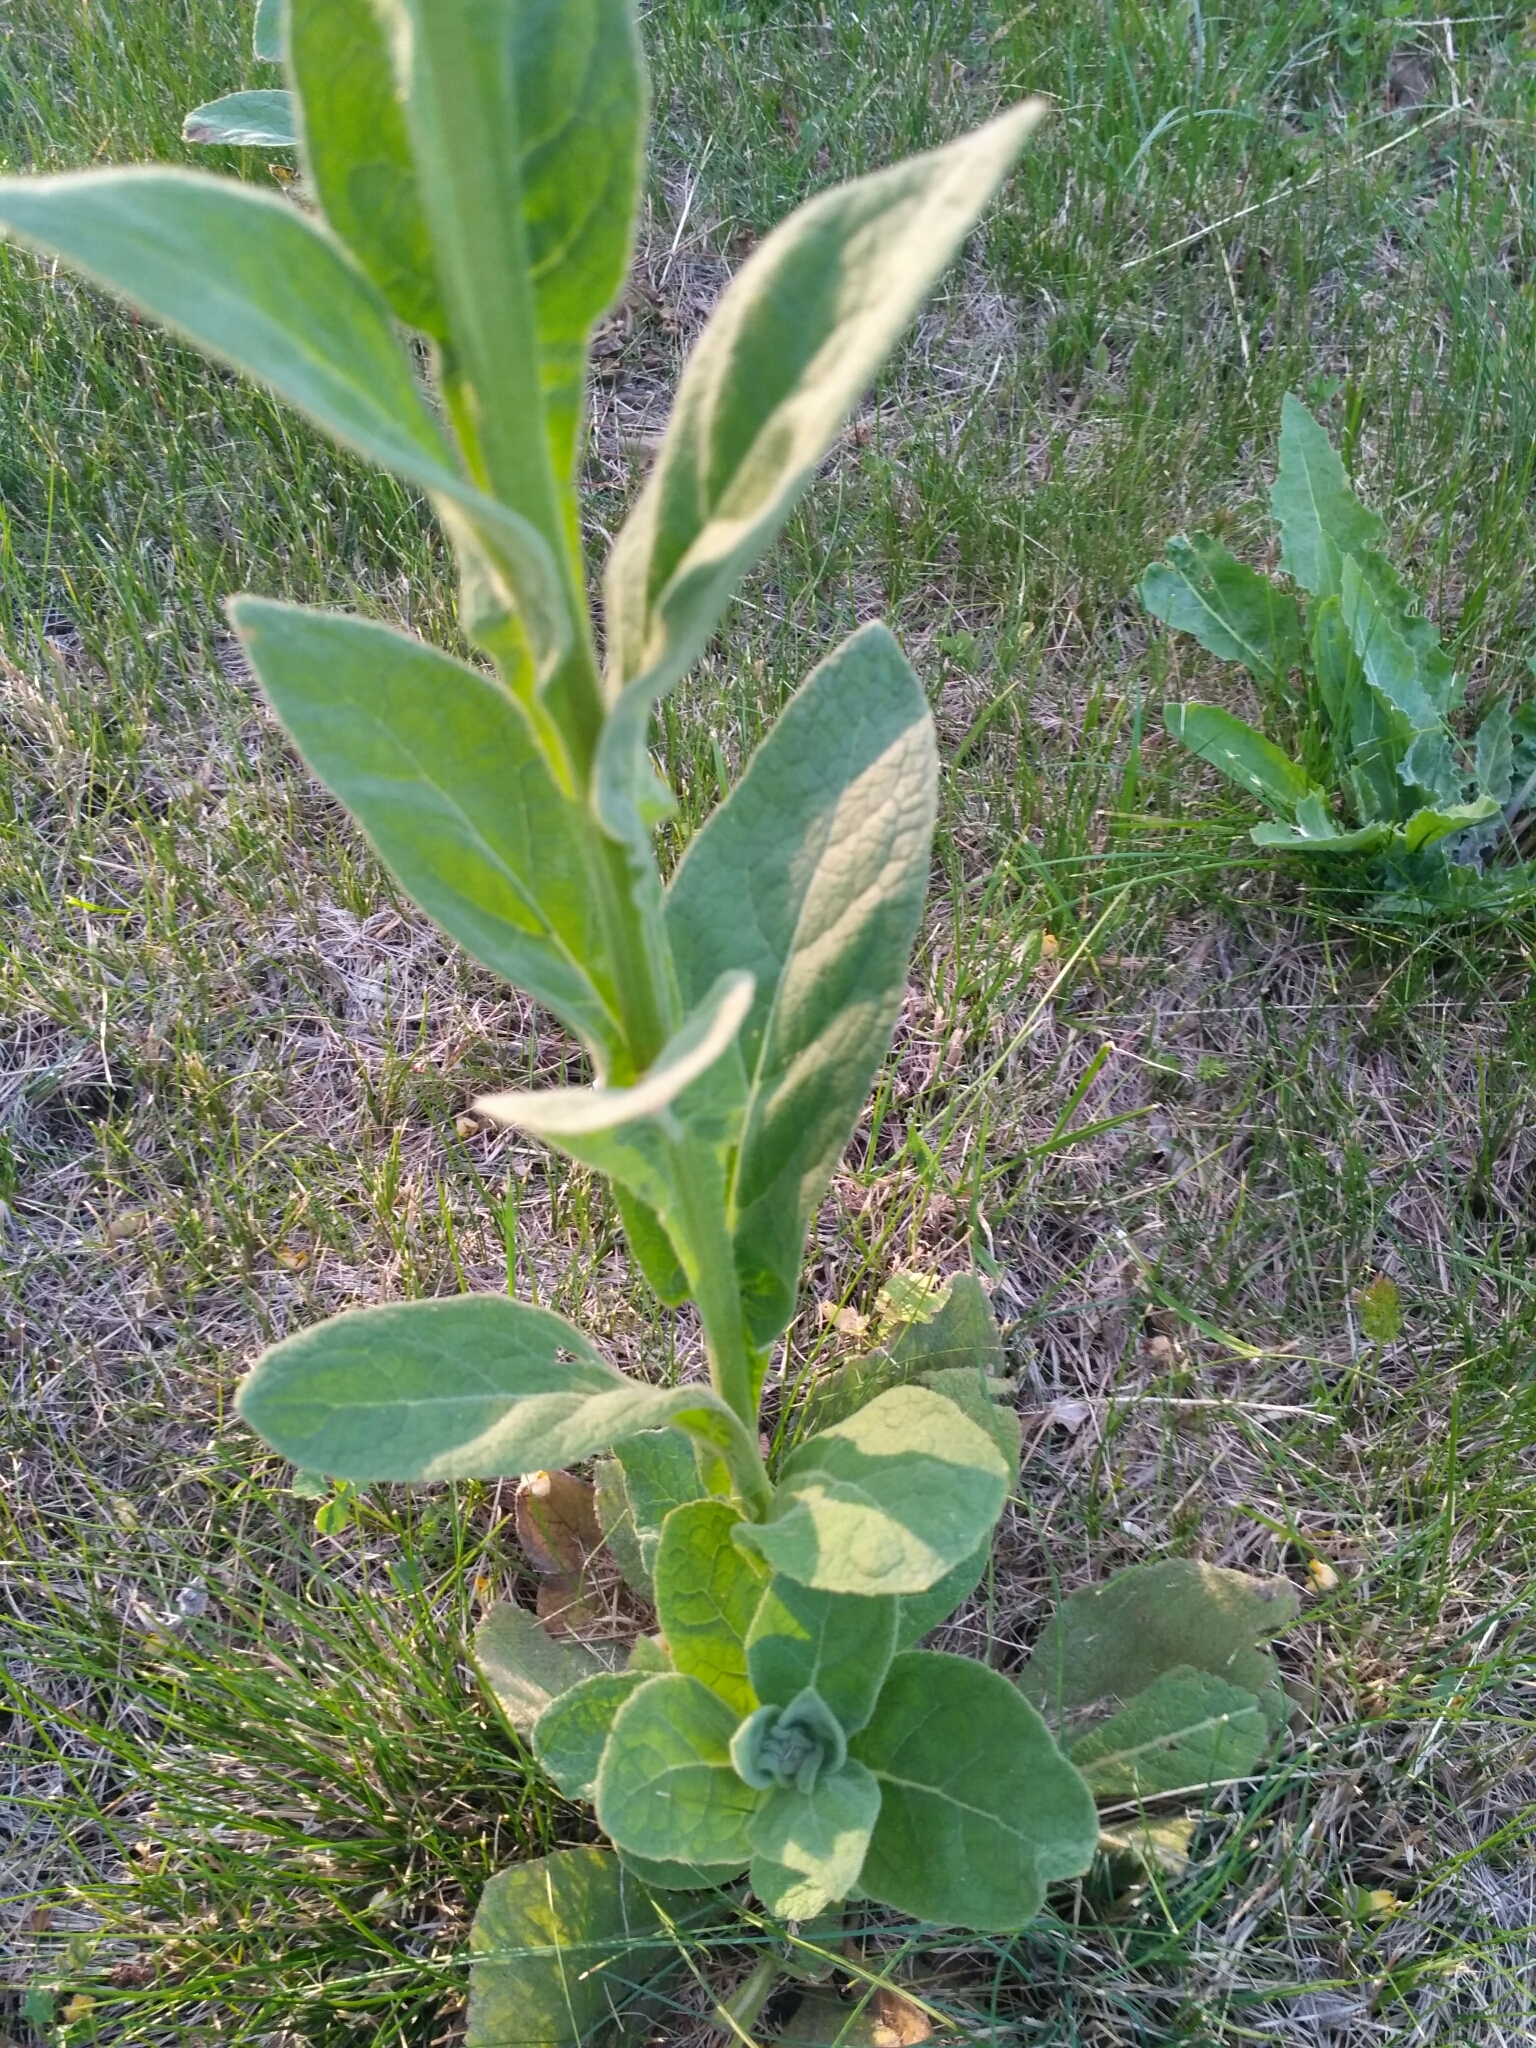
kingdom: Plantae
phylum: Tracheophyta
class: Magnoliopsida
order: Lamiales
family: Scrophulariaceae
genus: Verbascum
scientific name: Verbascum thapsus
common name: Common mullein
